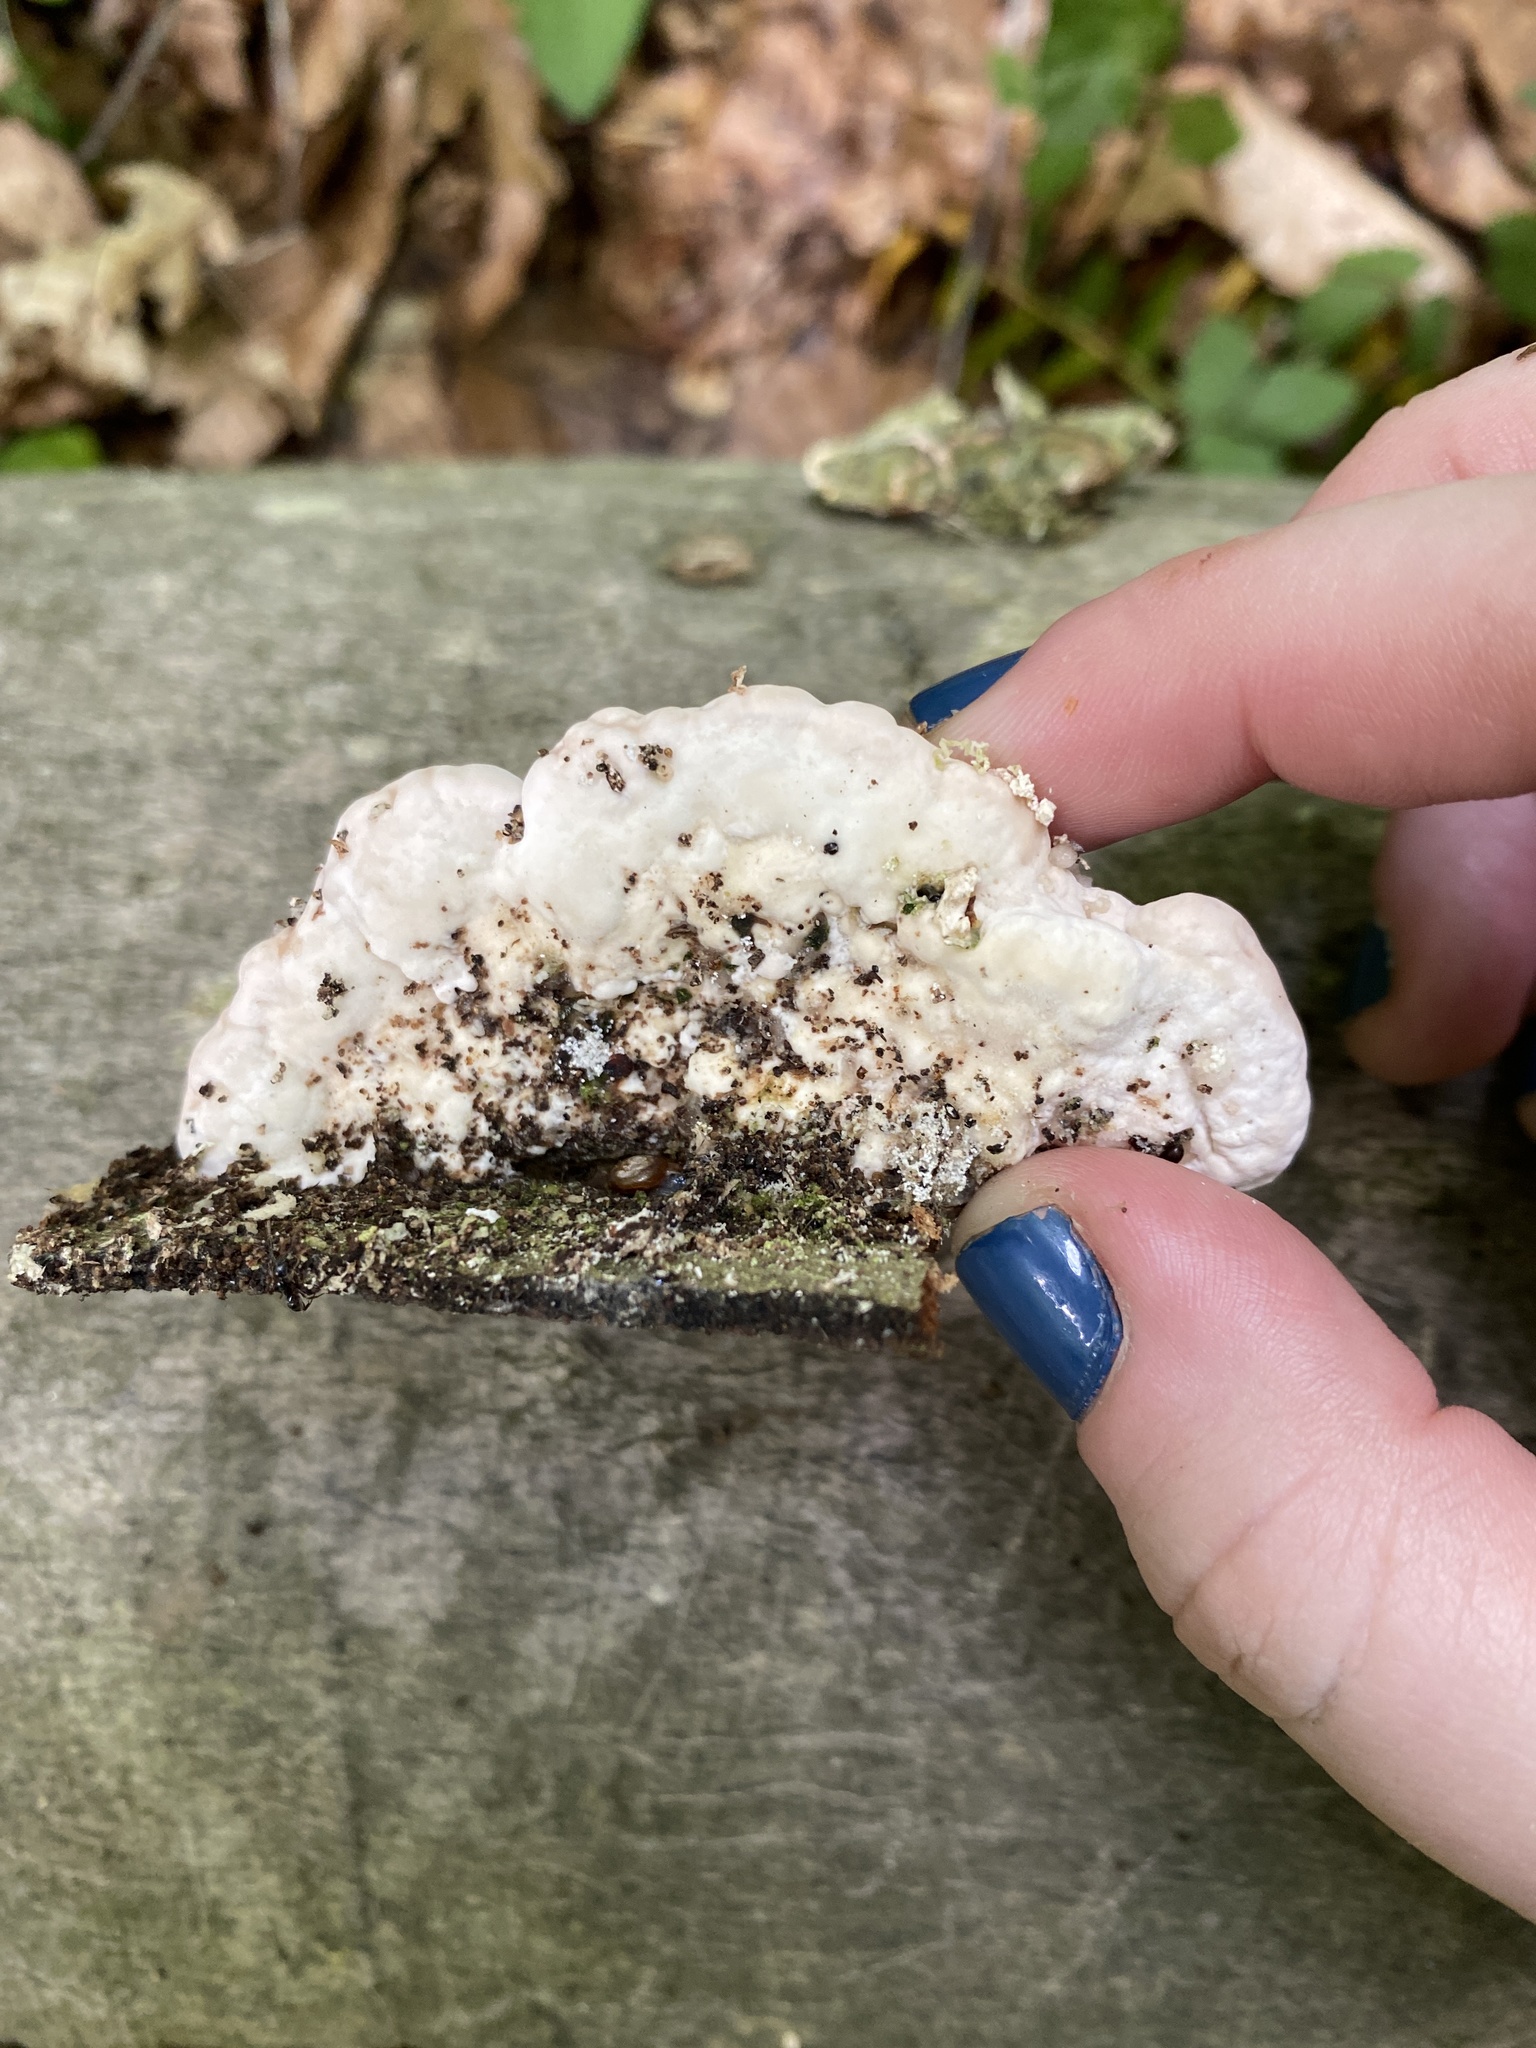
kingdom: Fungi
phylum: Basidiomycota
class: Agaricomycetes
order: Polyporales
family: Polyporaceae
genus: Trametes
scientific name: Trametes gibbosa
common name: Lumpy bracket
